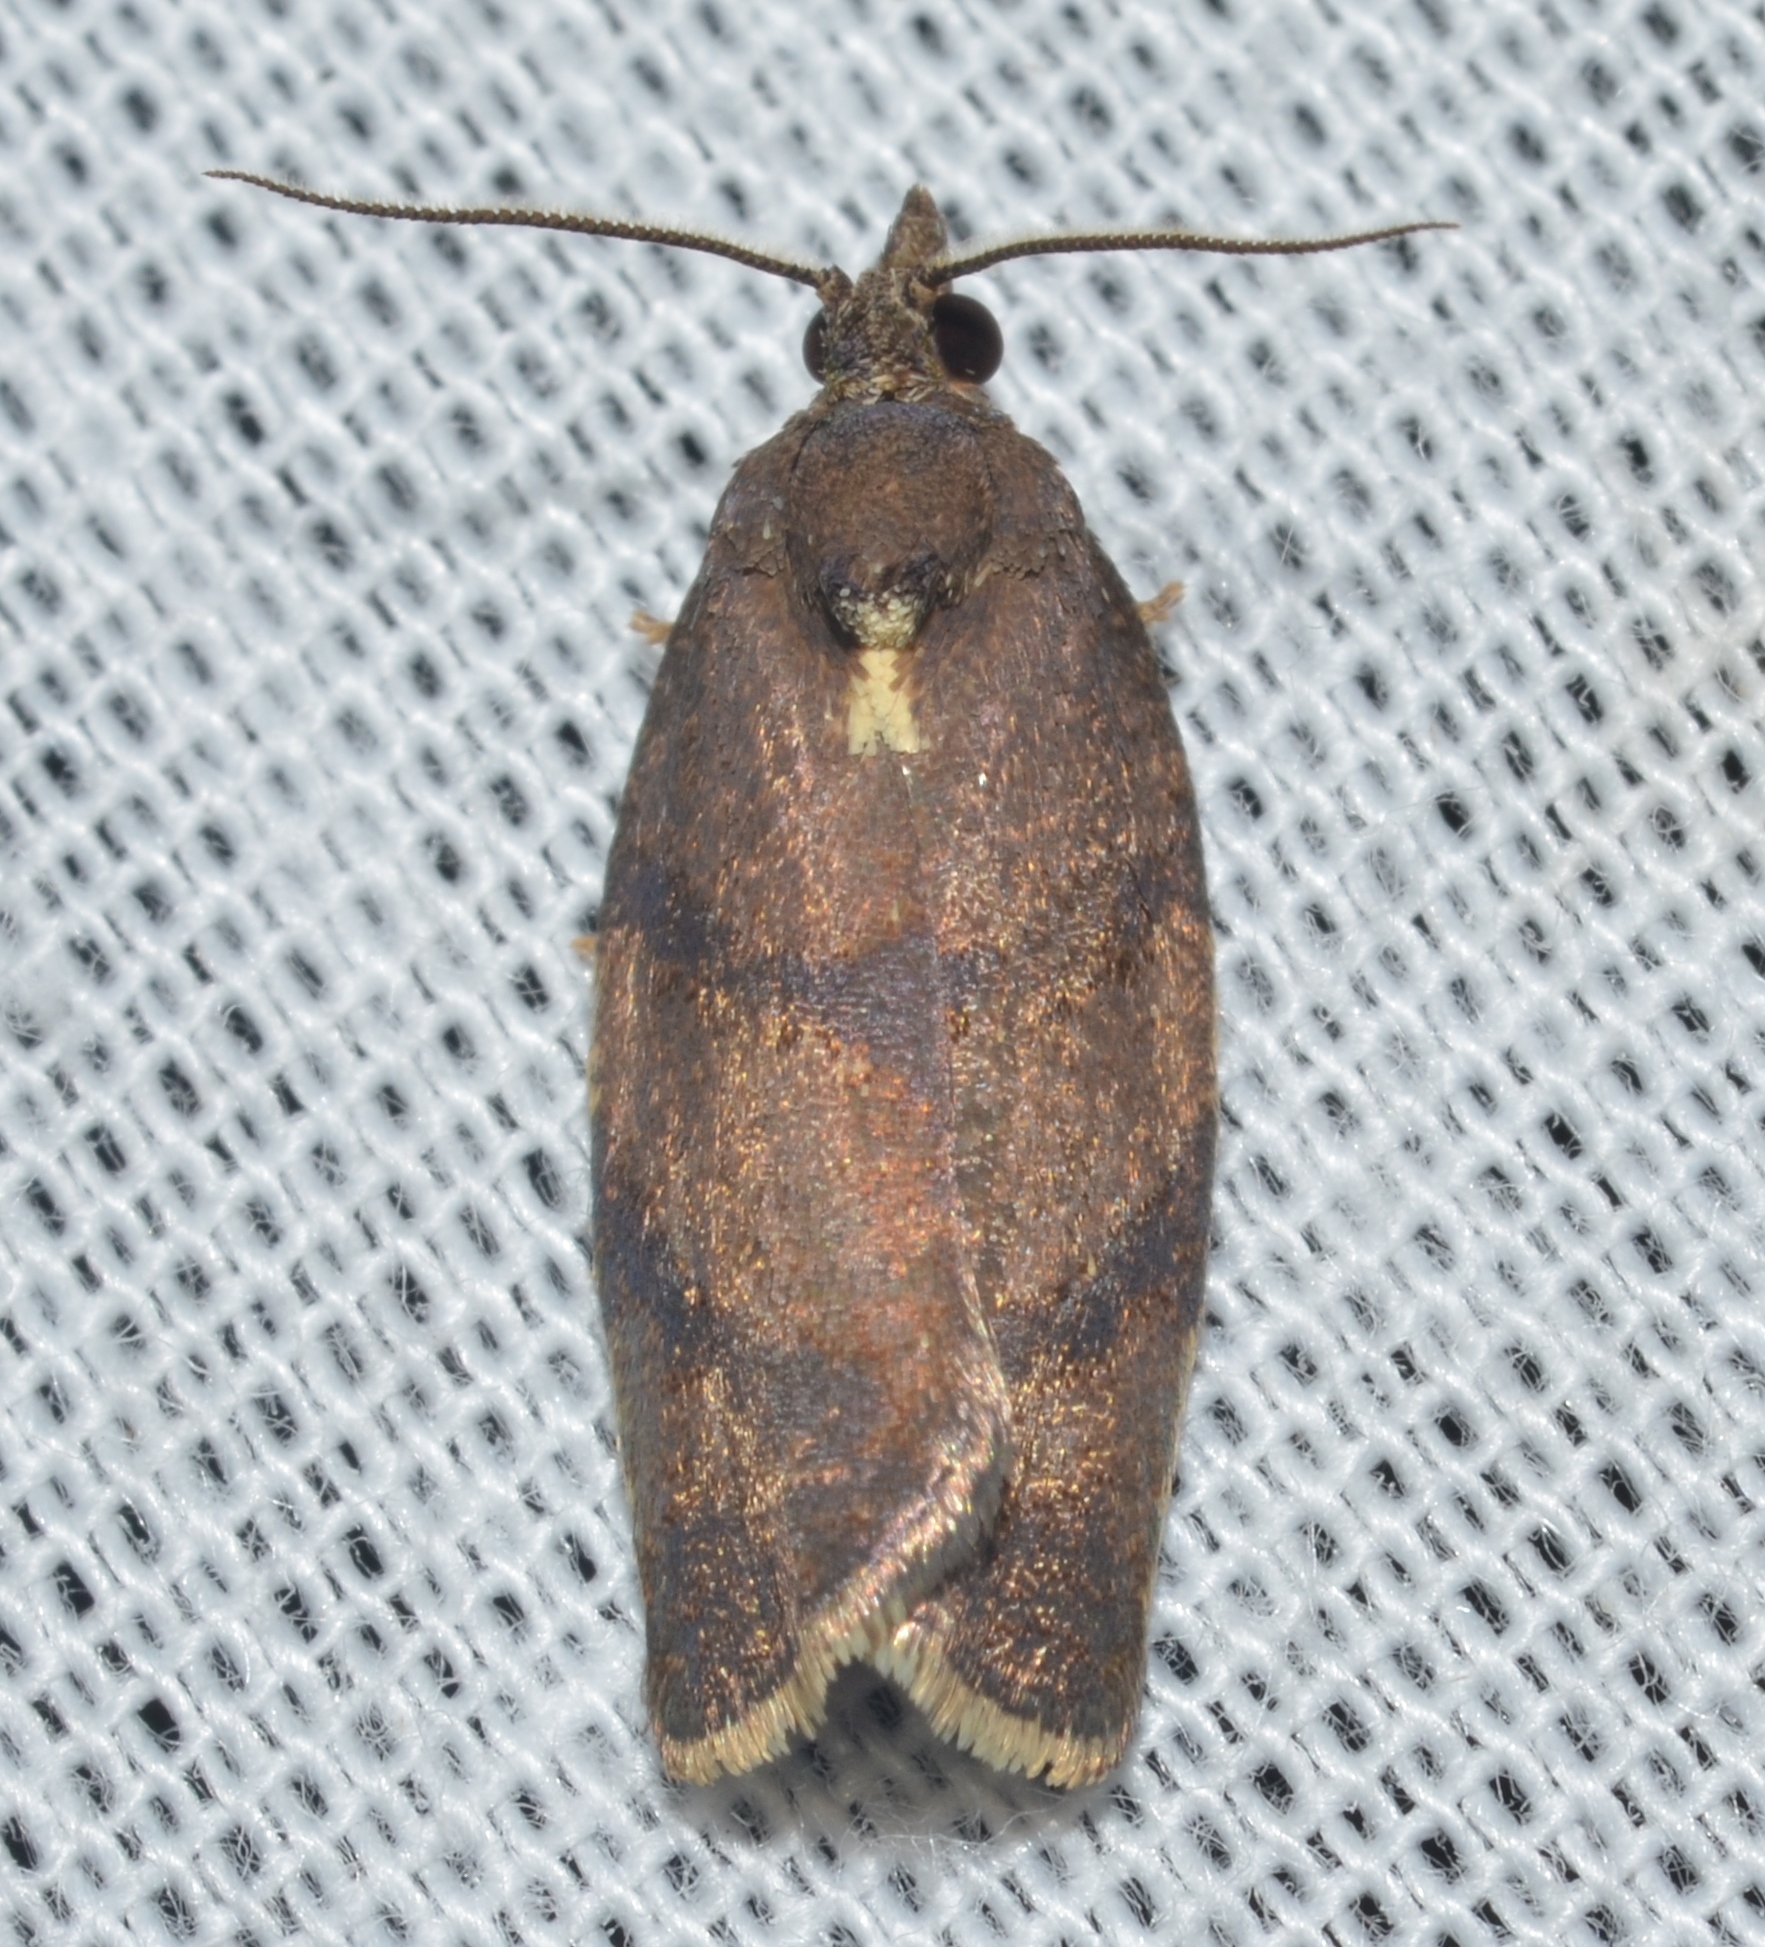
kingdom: Animalia
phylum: Arthropoda
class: Insecta
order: Lepidoptera
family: Tortricidae
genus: Argyrotaenia
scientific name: Argyrotaenia juglandana
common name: Hickory leafroller moth
